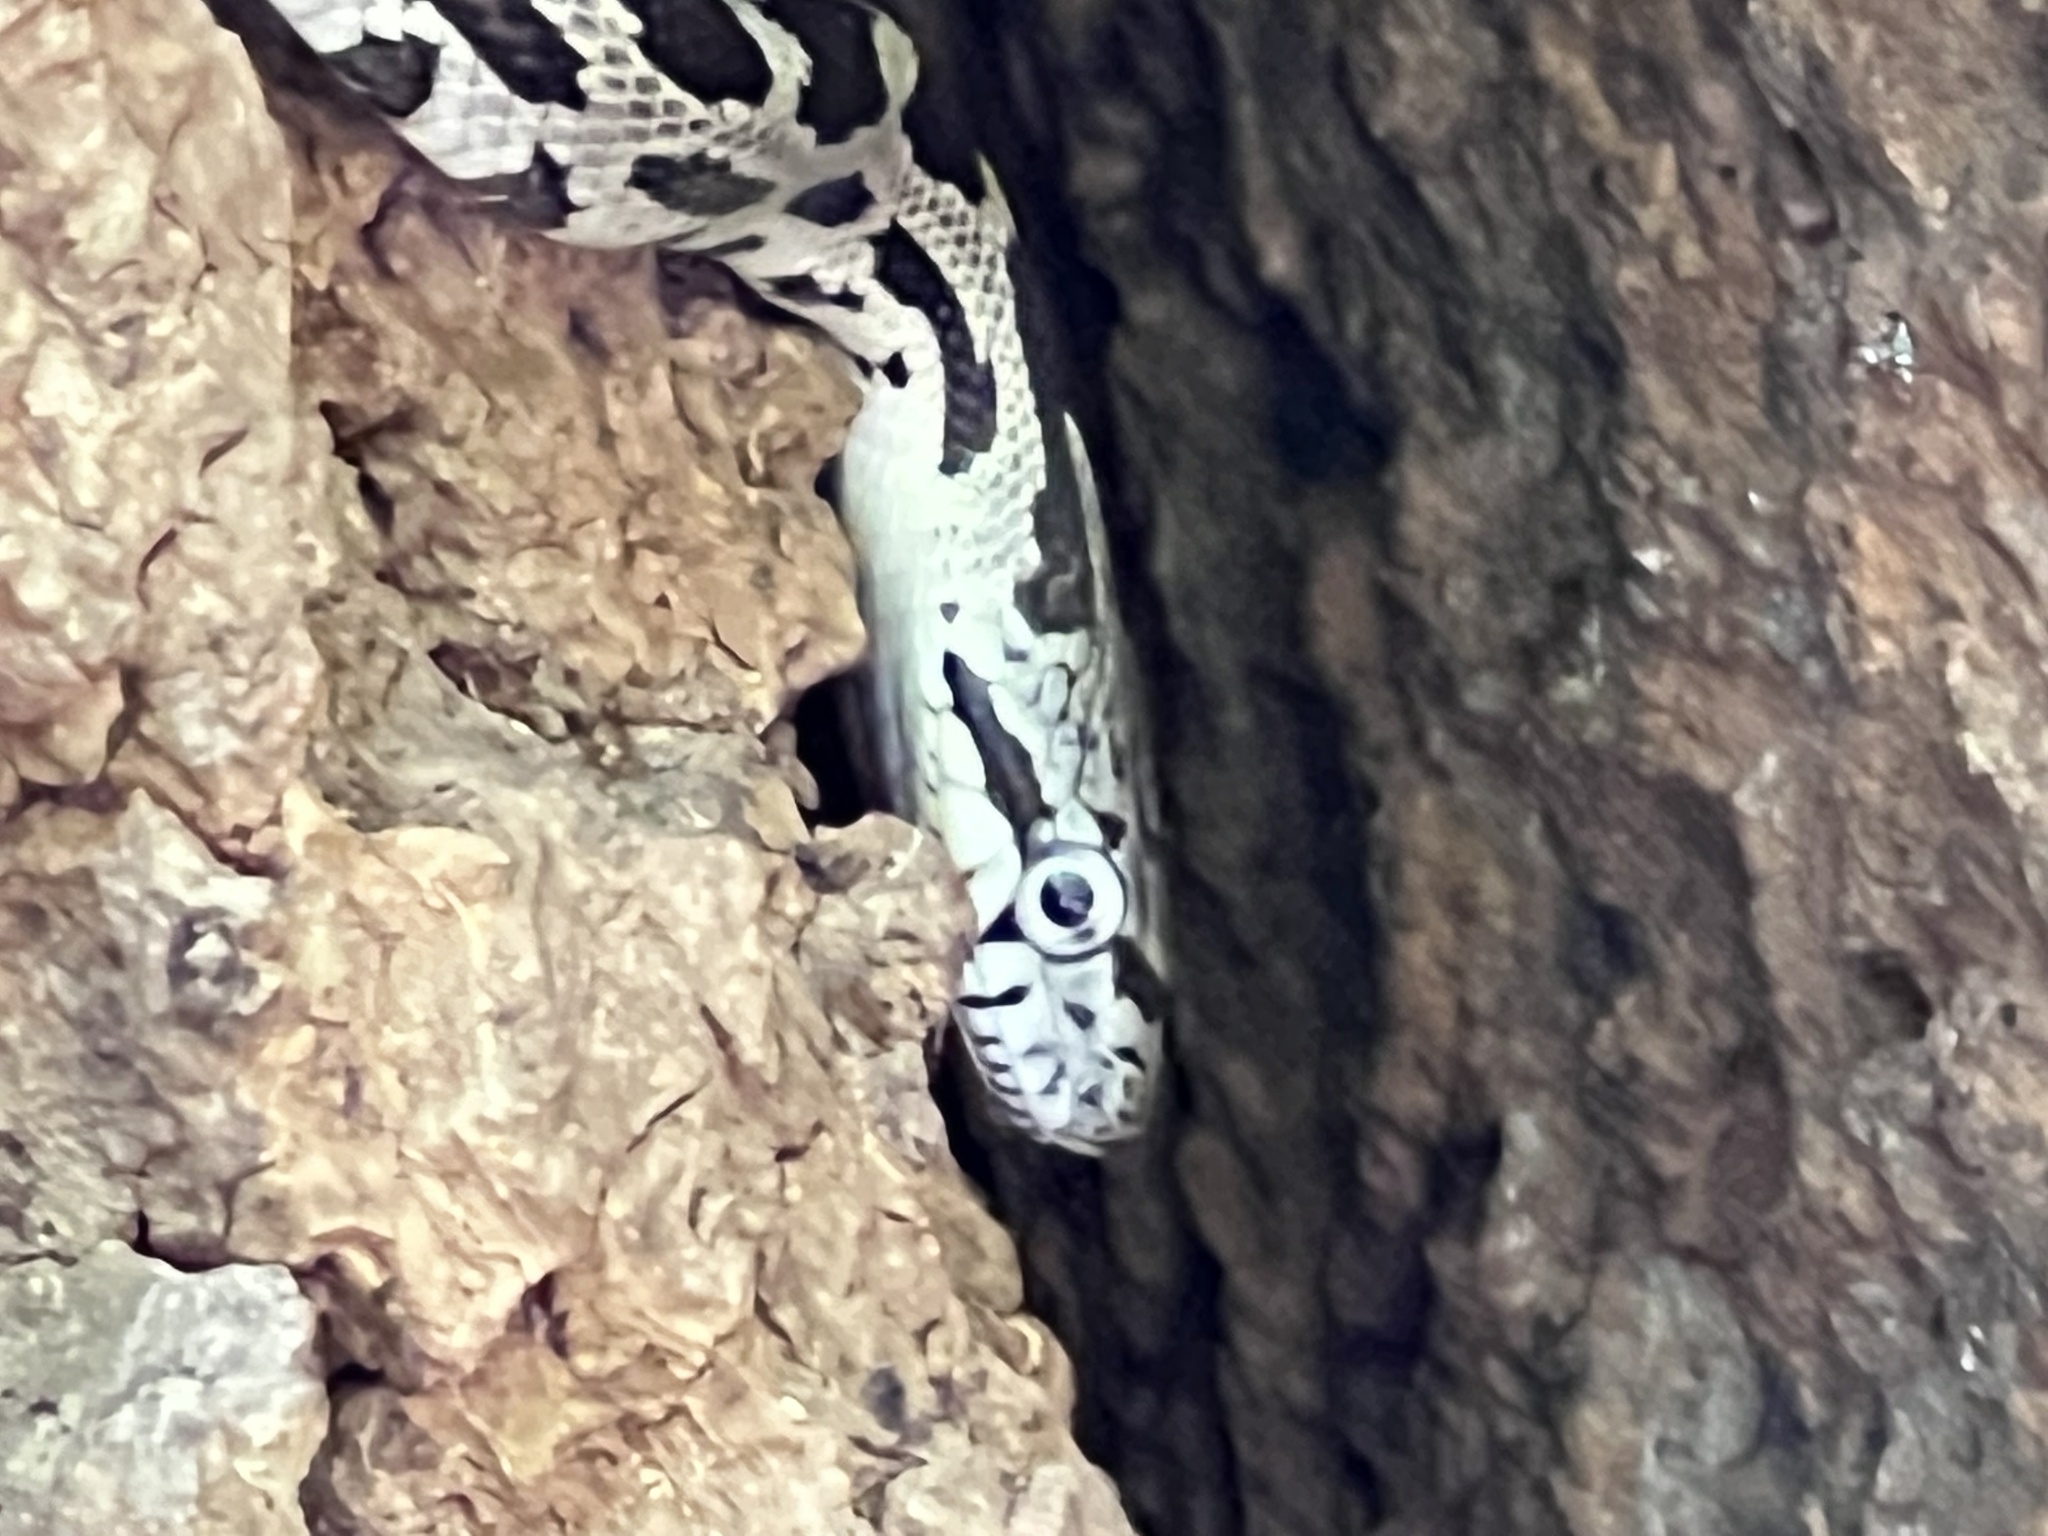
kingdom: Animalia
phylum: Chordata
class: Squamata
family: Colubridae
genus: Pantherophis
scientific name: Pantherophis alleghaniensis
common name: Eastern rat snake
